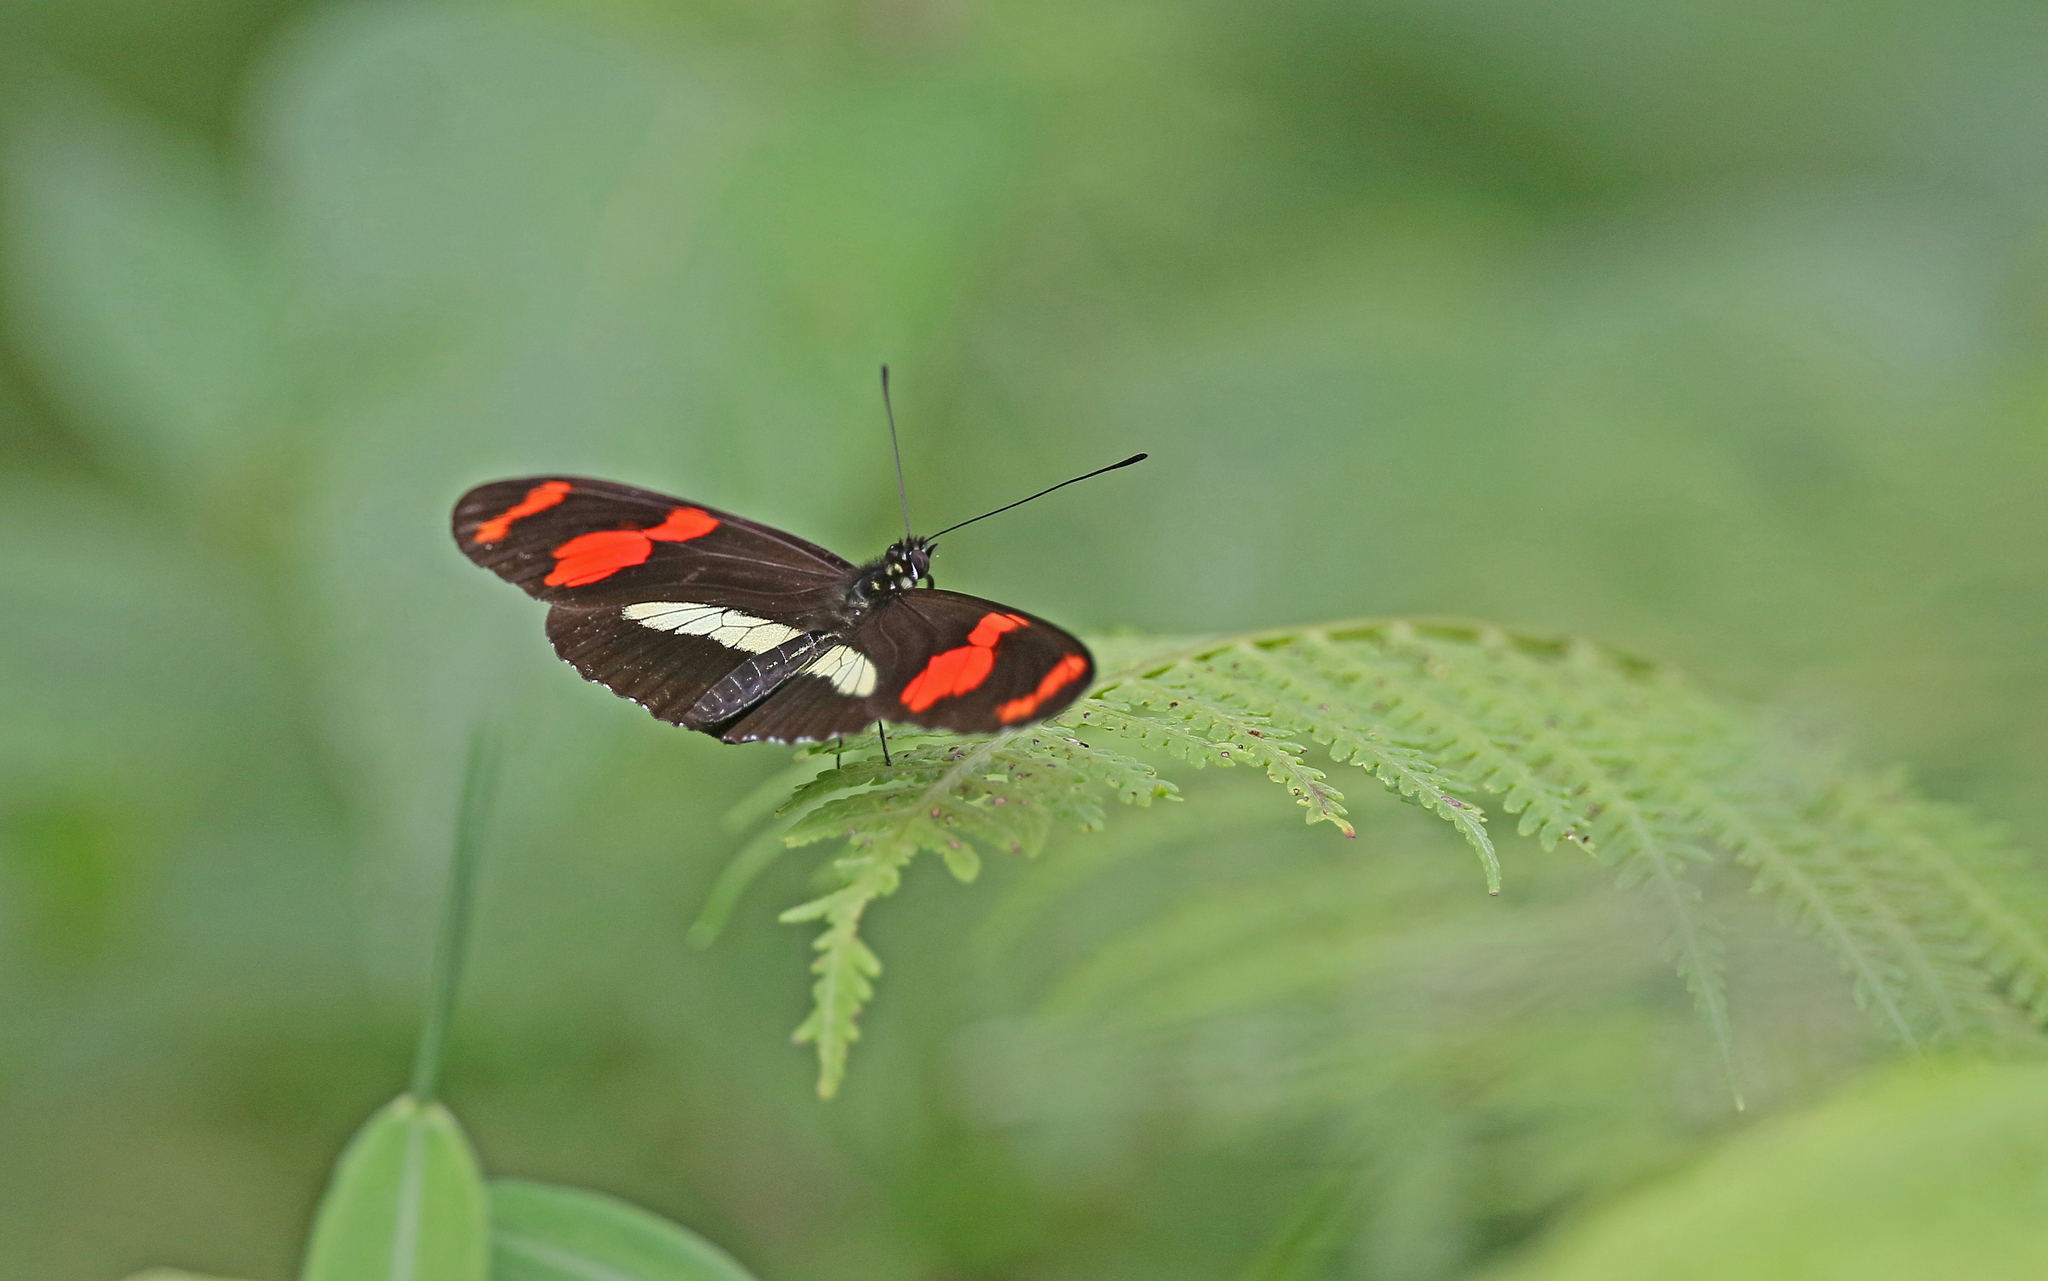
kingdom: Animalia
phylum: Arthropoda
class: Insecta
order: Lepidoptera
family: Nymphalidae
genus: Heliconius
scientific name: Heliconius telesiphe
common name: Telesiphe longwing
